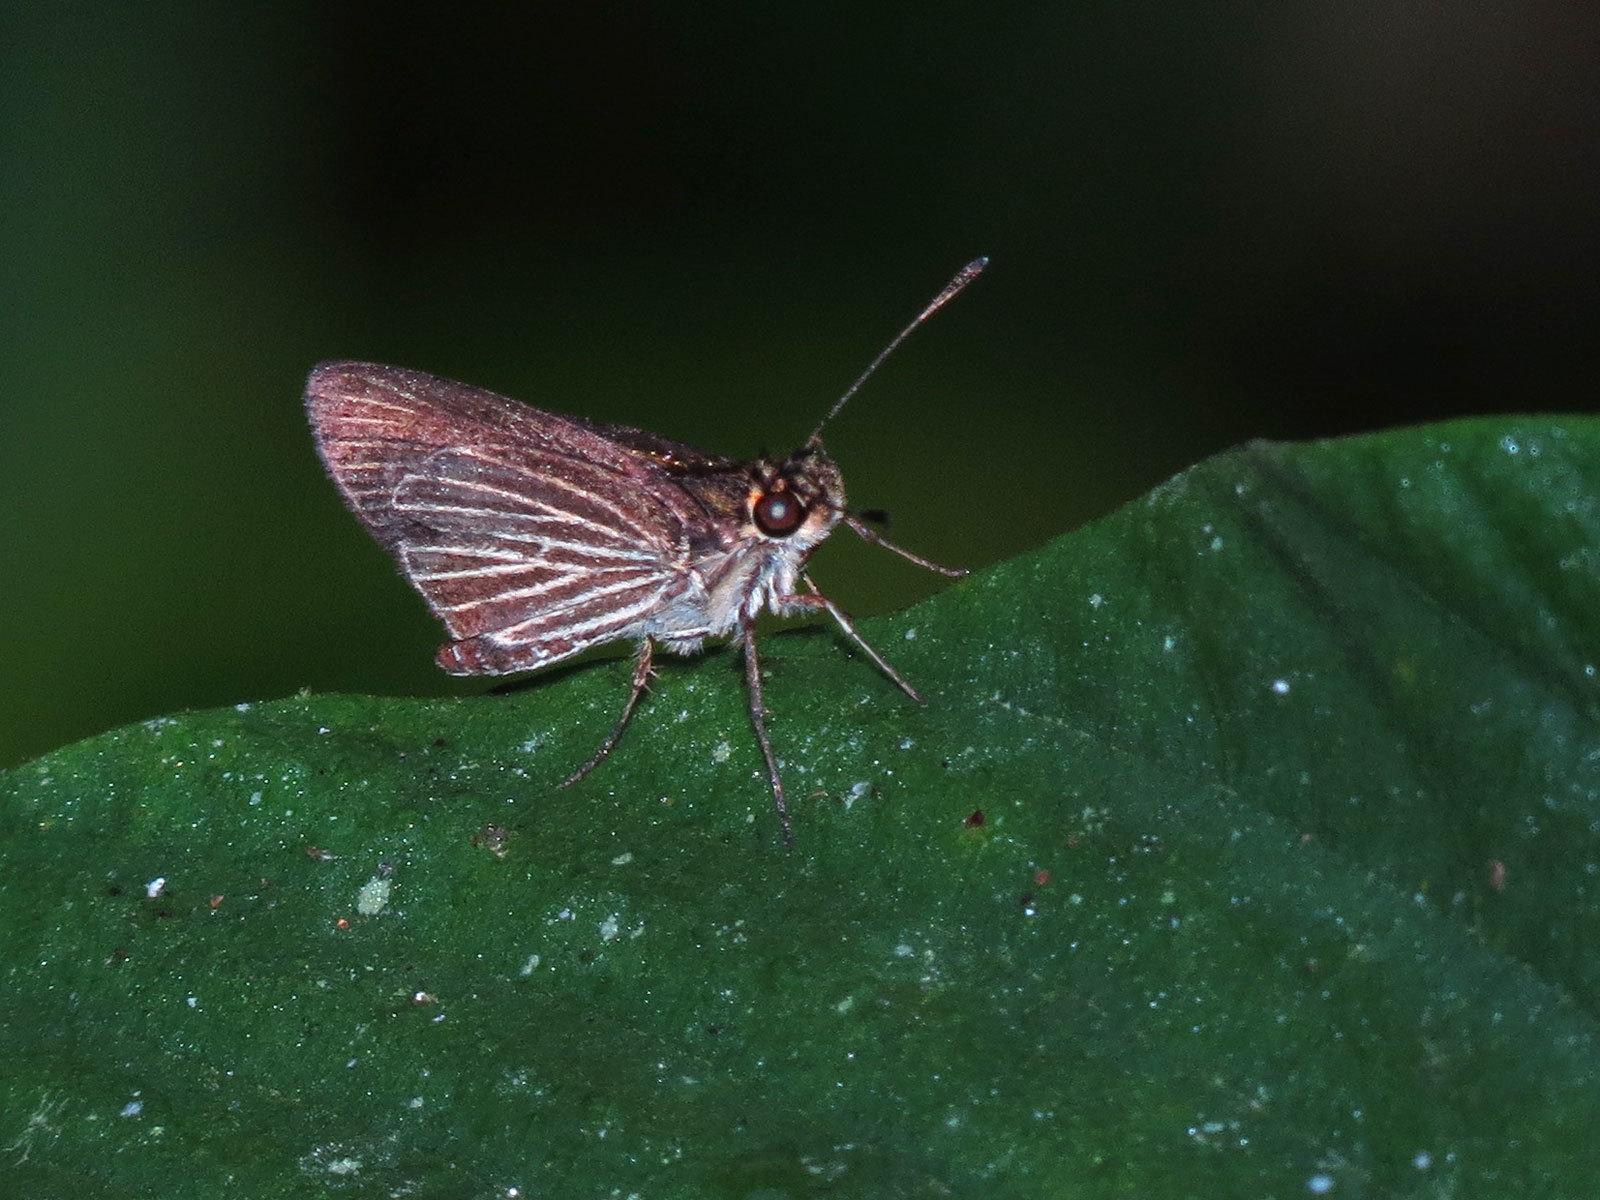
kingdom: Animalia
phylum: Arthropoda
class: Insecta
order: Lepidoptera
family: Hesperiidae
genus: Callimormus
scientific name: Callimormus radiola
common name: Radiant skipper
